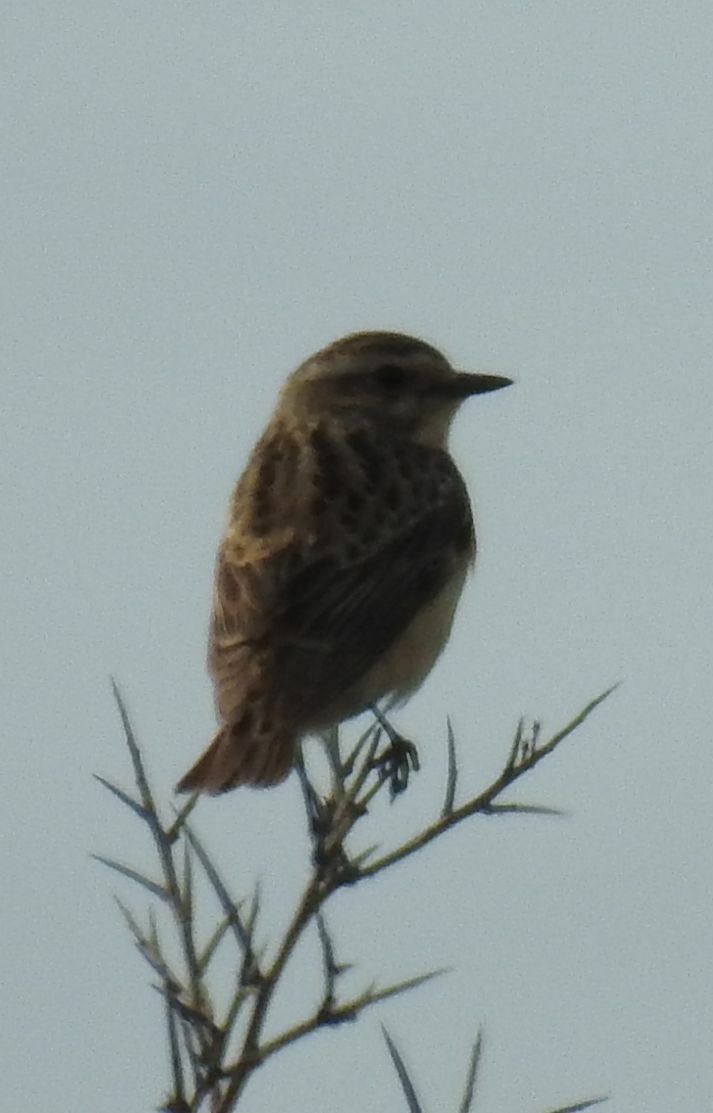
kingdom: Animalia
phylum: Chordata
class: Aves
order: Passeriformes
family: Muscicapidae
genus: Saxicola
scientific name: Saxicola rubetra
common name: Whinchat
